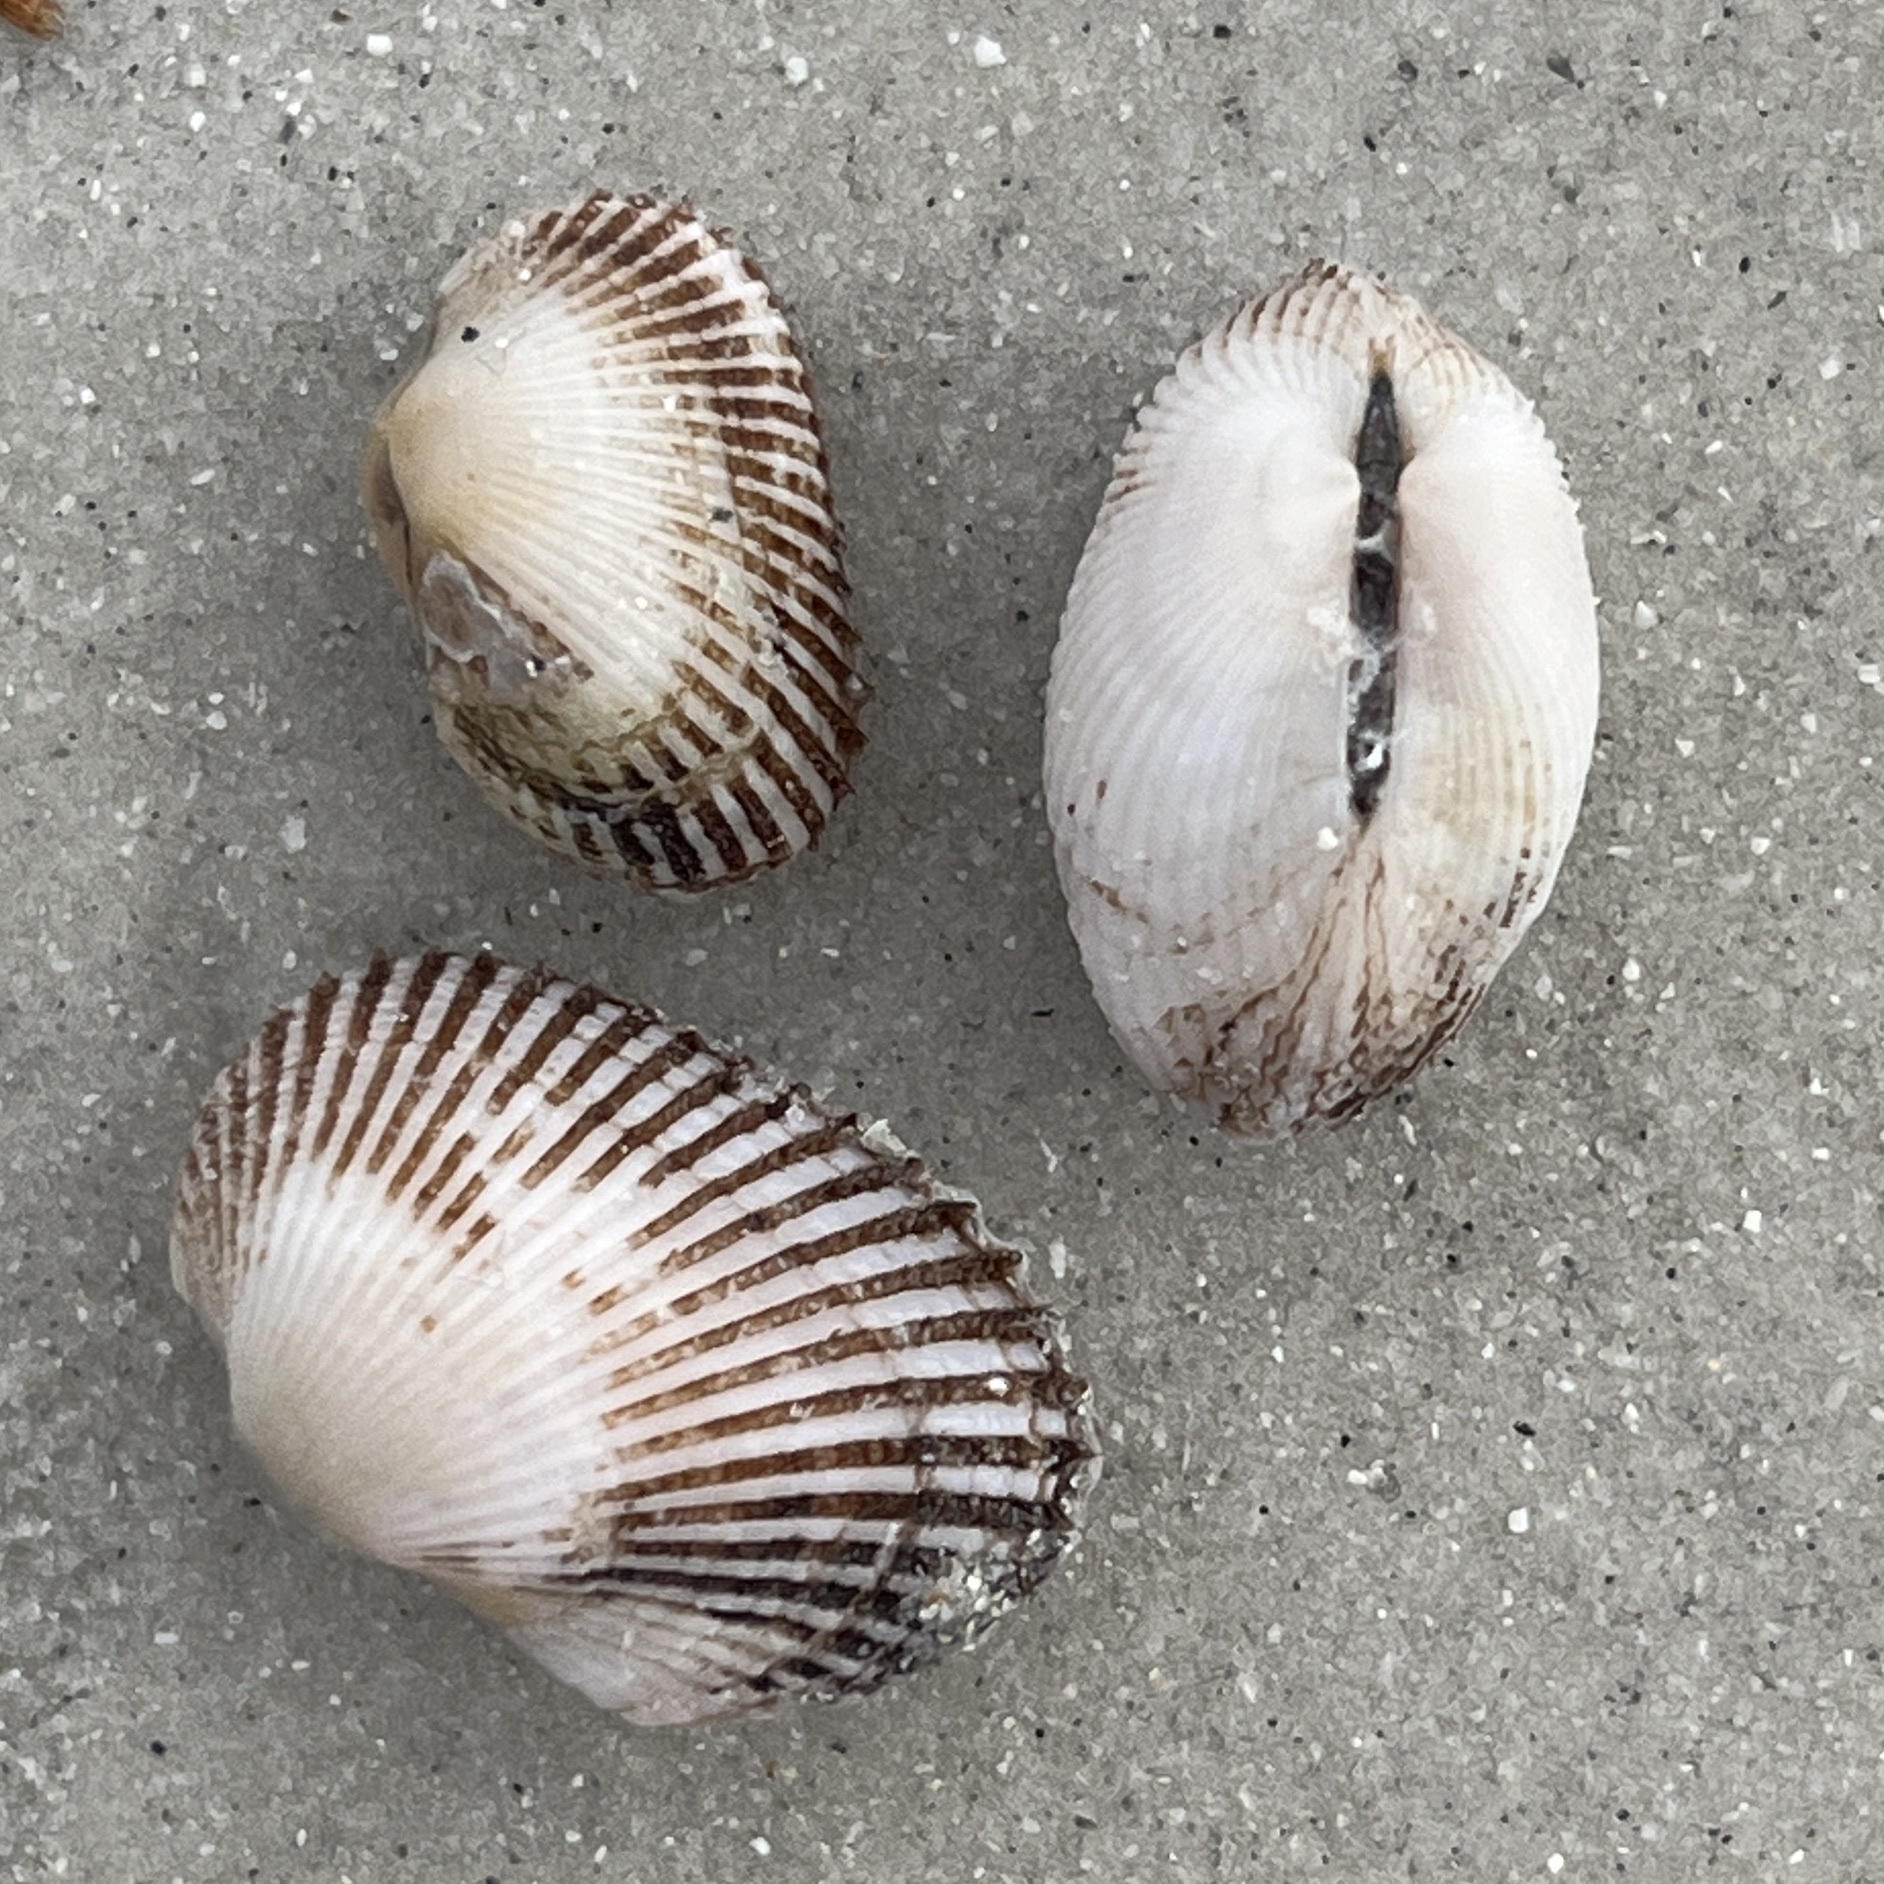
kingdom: Animalia
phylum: Mollusca
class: Bivalvia
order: Arcida
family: Arcidae
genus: Anadara
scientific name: Anadara transversa
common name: Transverse ark
